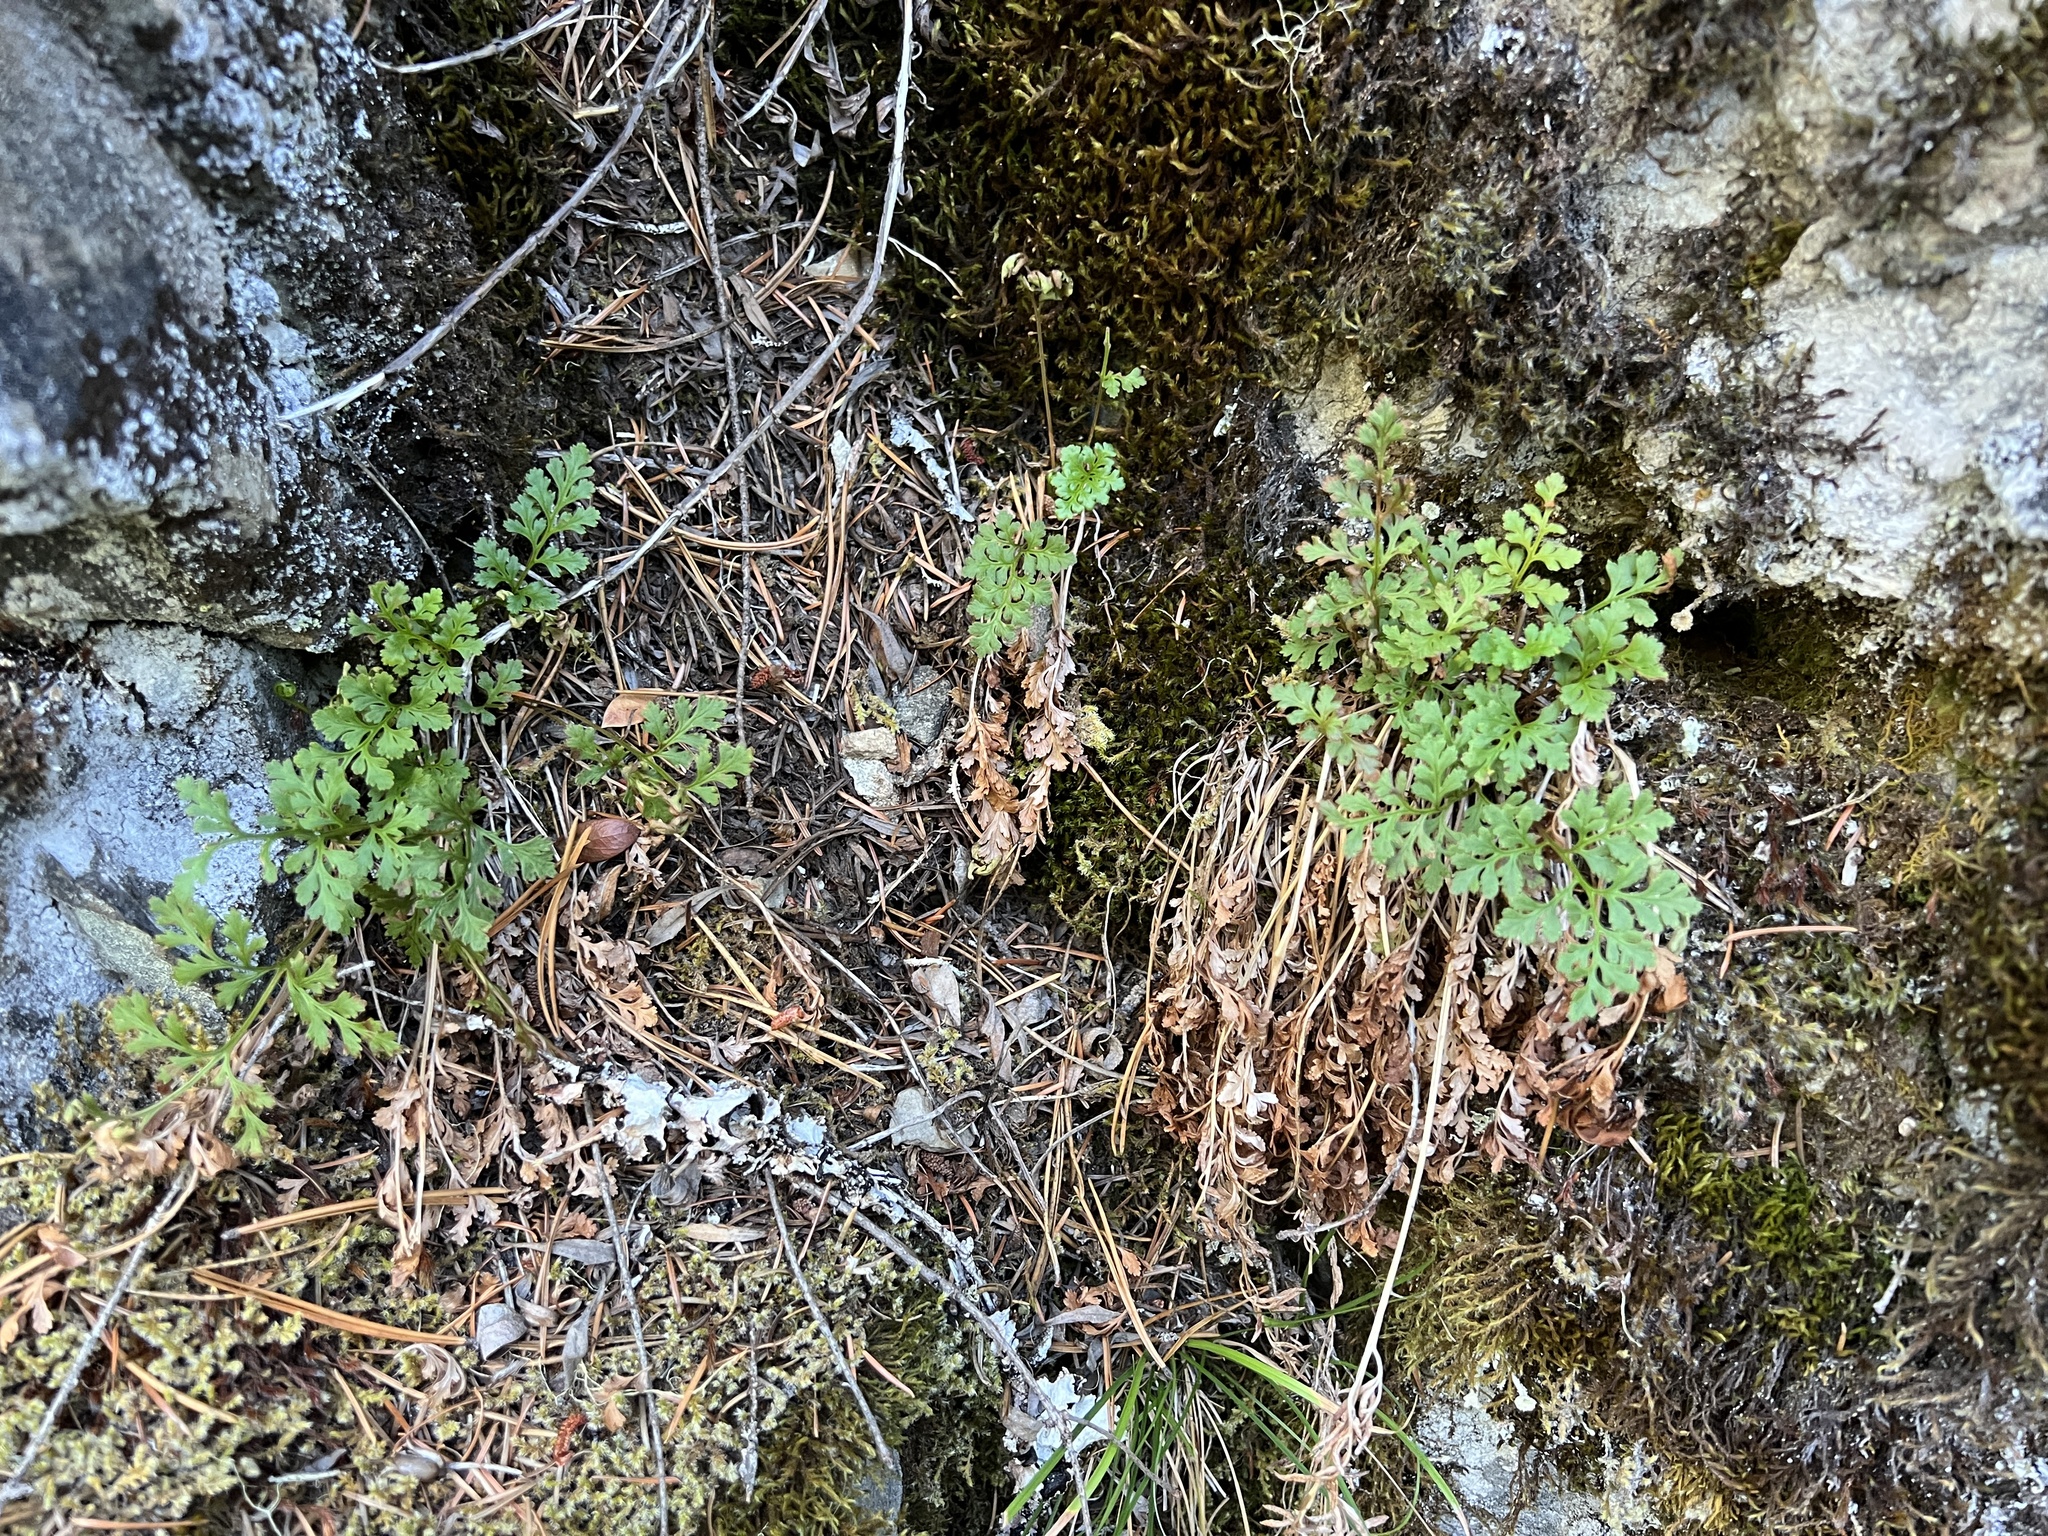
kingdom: Plantae
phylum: Tracheophyta
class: Polypodiopsida
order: Polypodiales
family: Pteridaceae
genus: Cryptogramma
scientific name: Cryptogramma acrostichoides
